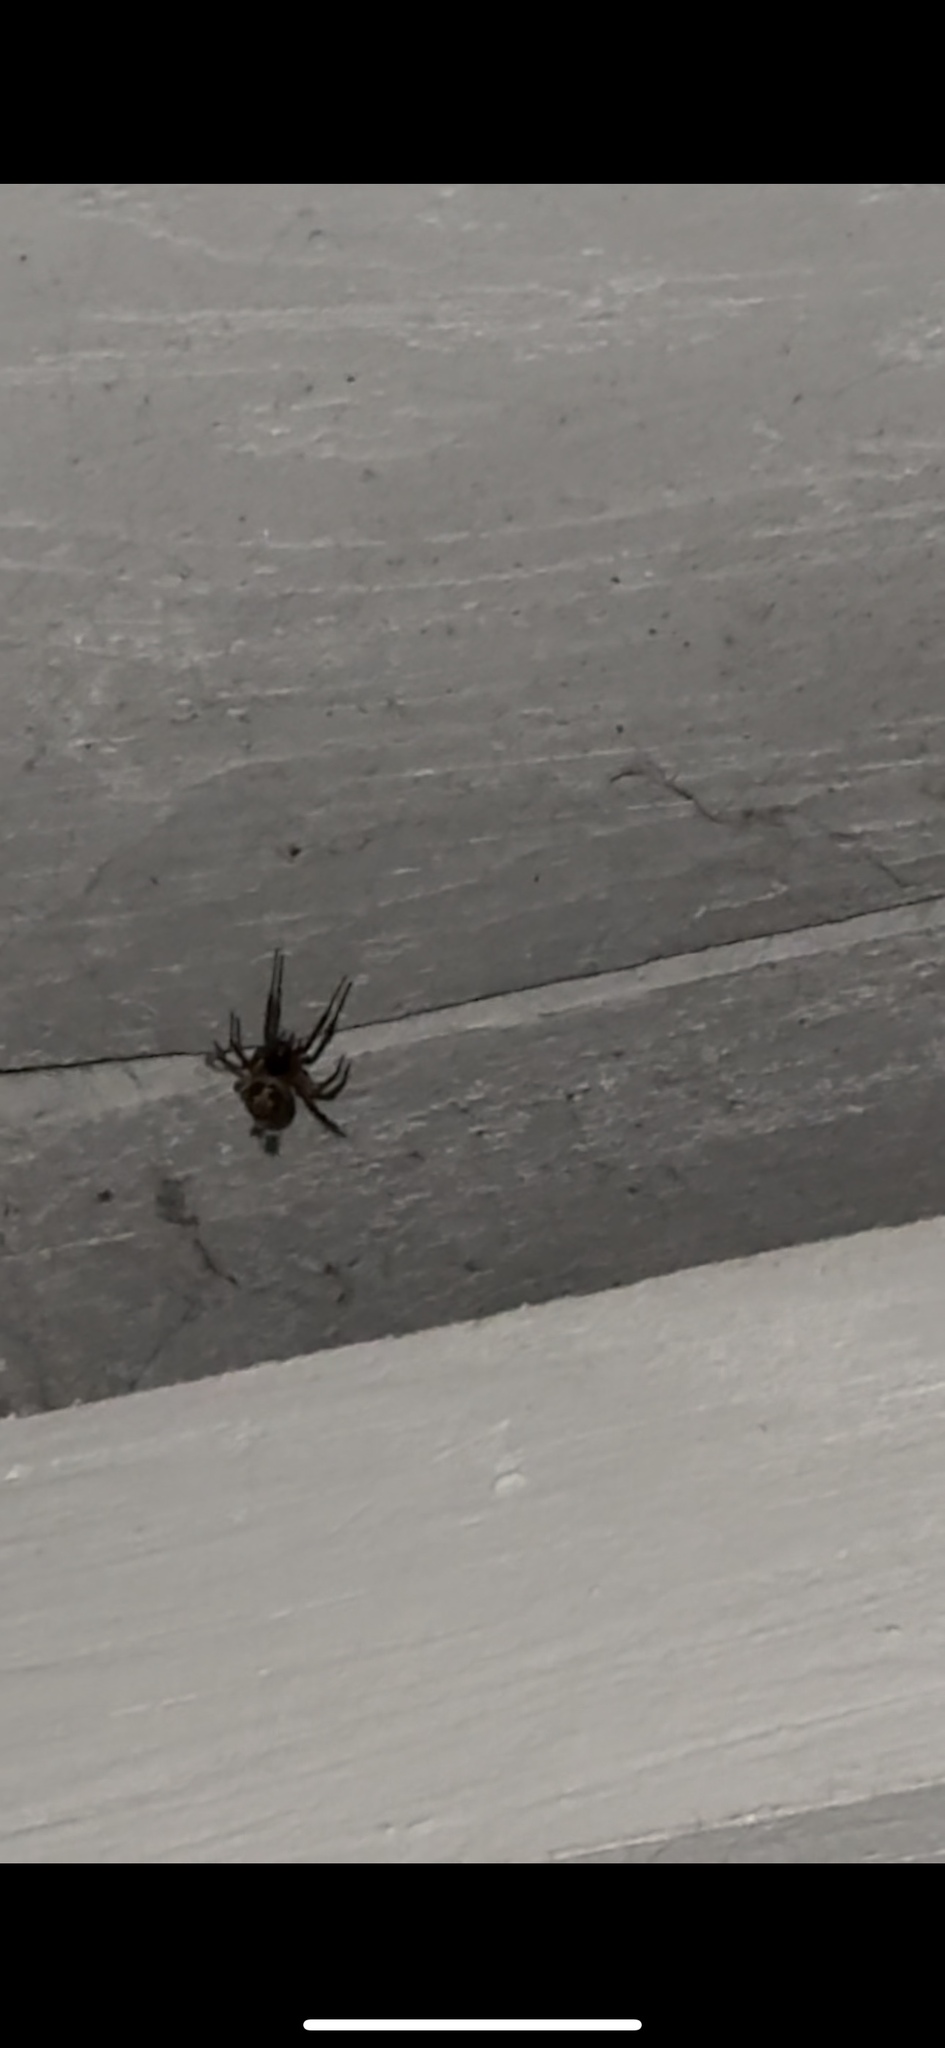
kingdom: Animalia
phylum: Arthropoda
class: Arachnida
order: Araneae
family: Theridiidae
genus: Steatoda
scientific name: Steatoda nobilis
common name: Cobweb weaver
